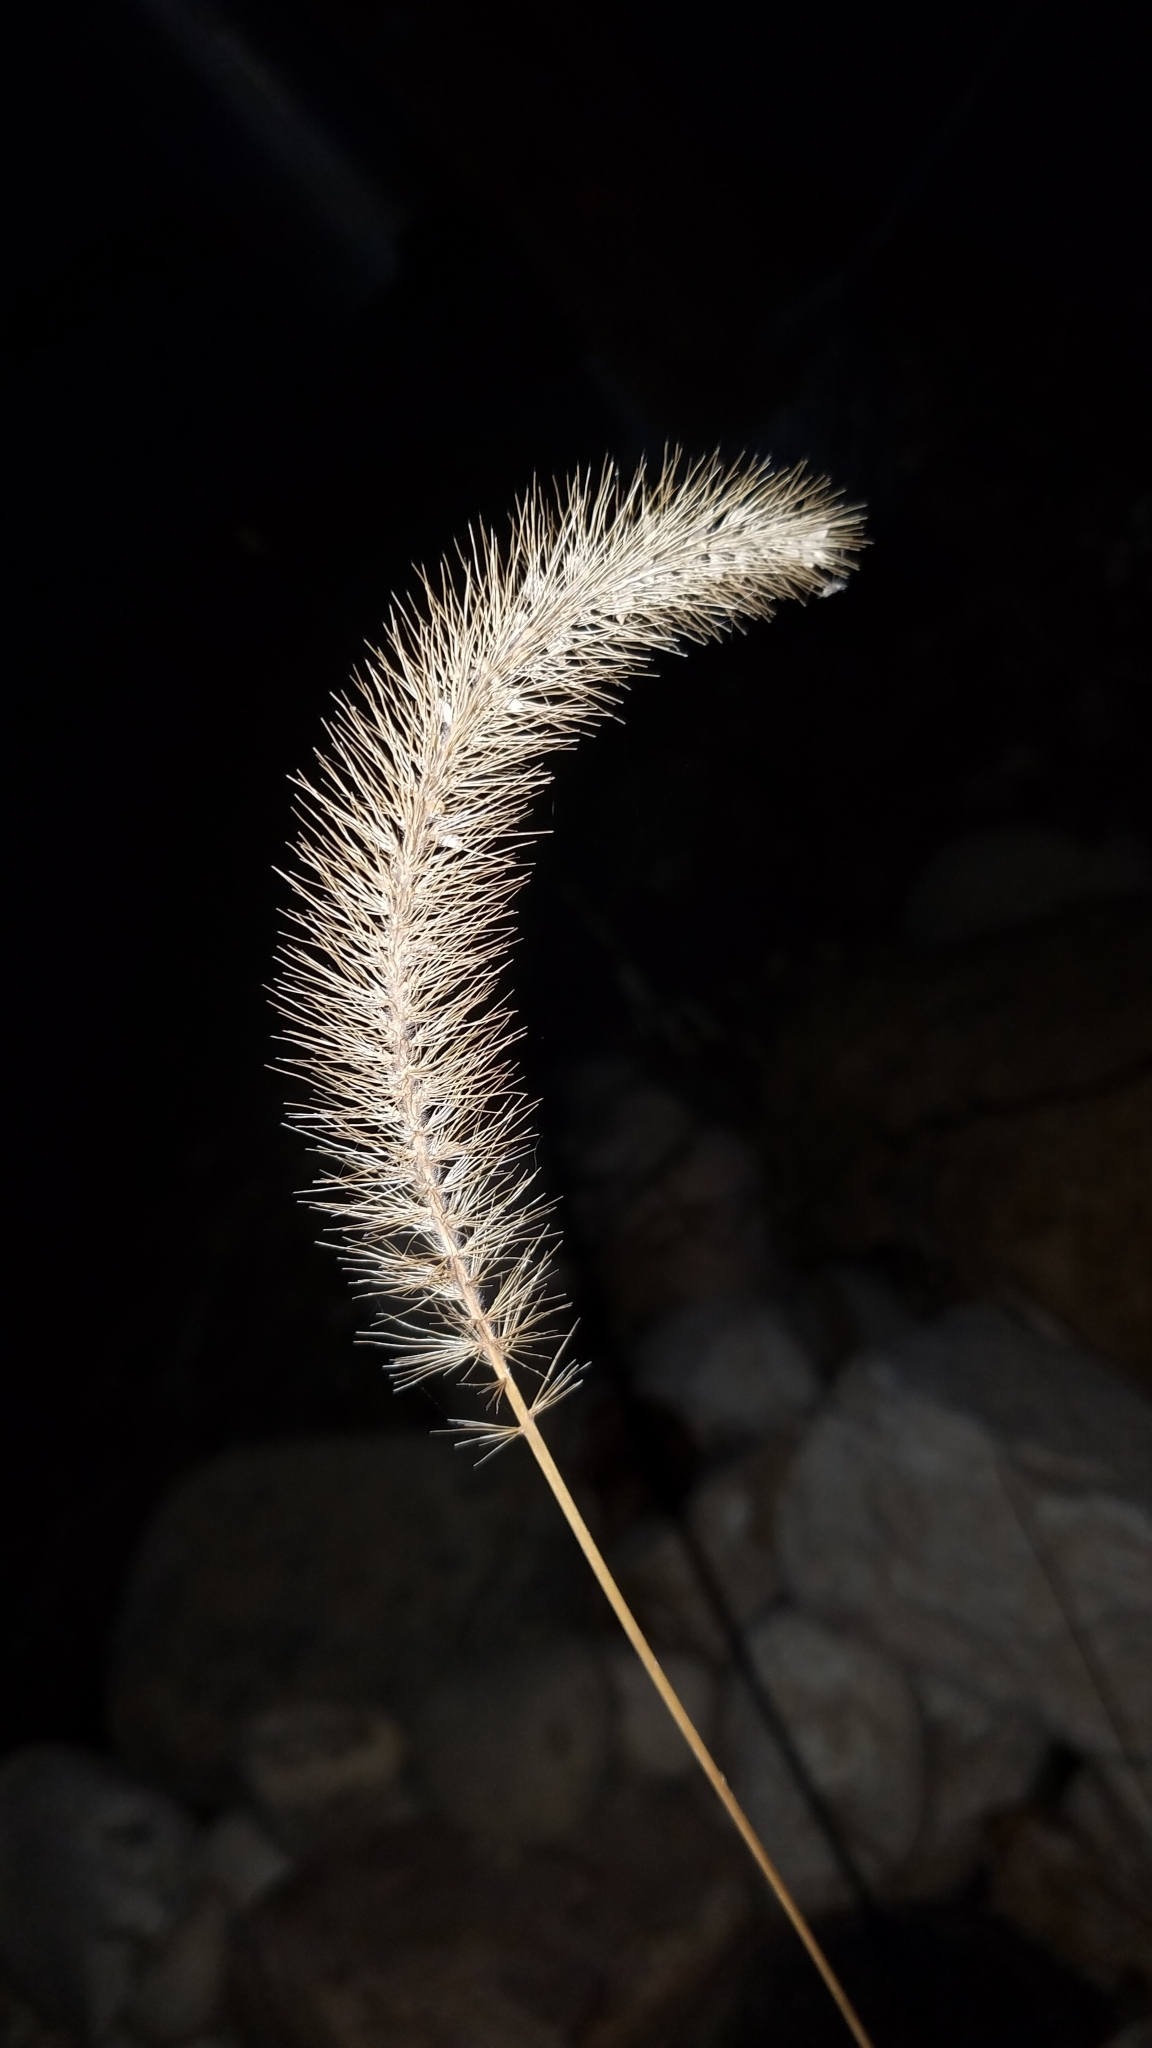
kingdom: Plantae
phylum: Tracheophyta
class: Liliopsida
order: Poales
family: Poaceae
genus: Setaria
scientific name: Setaria faberi
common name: Nodding bristle-grass
